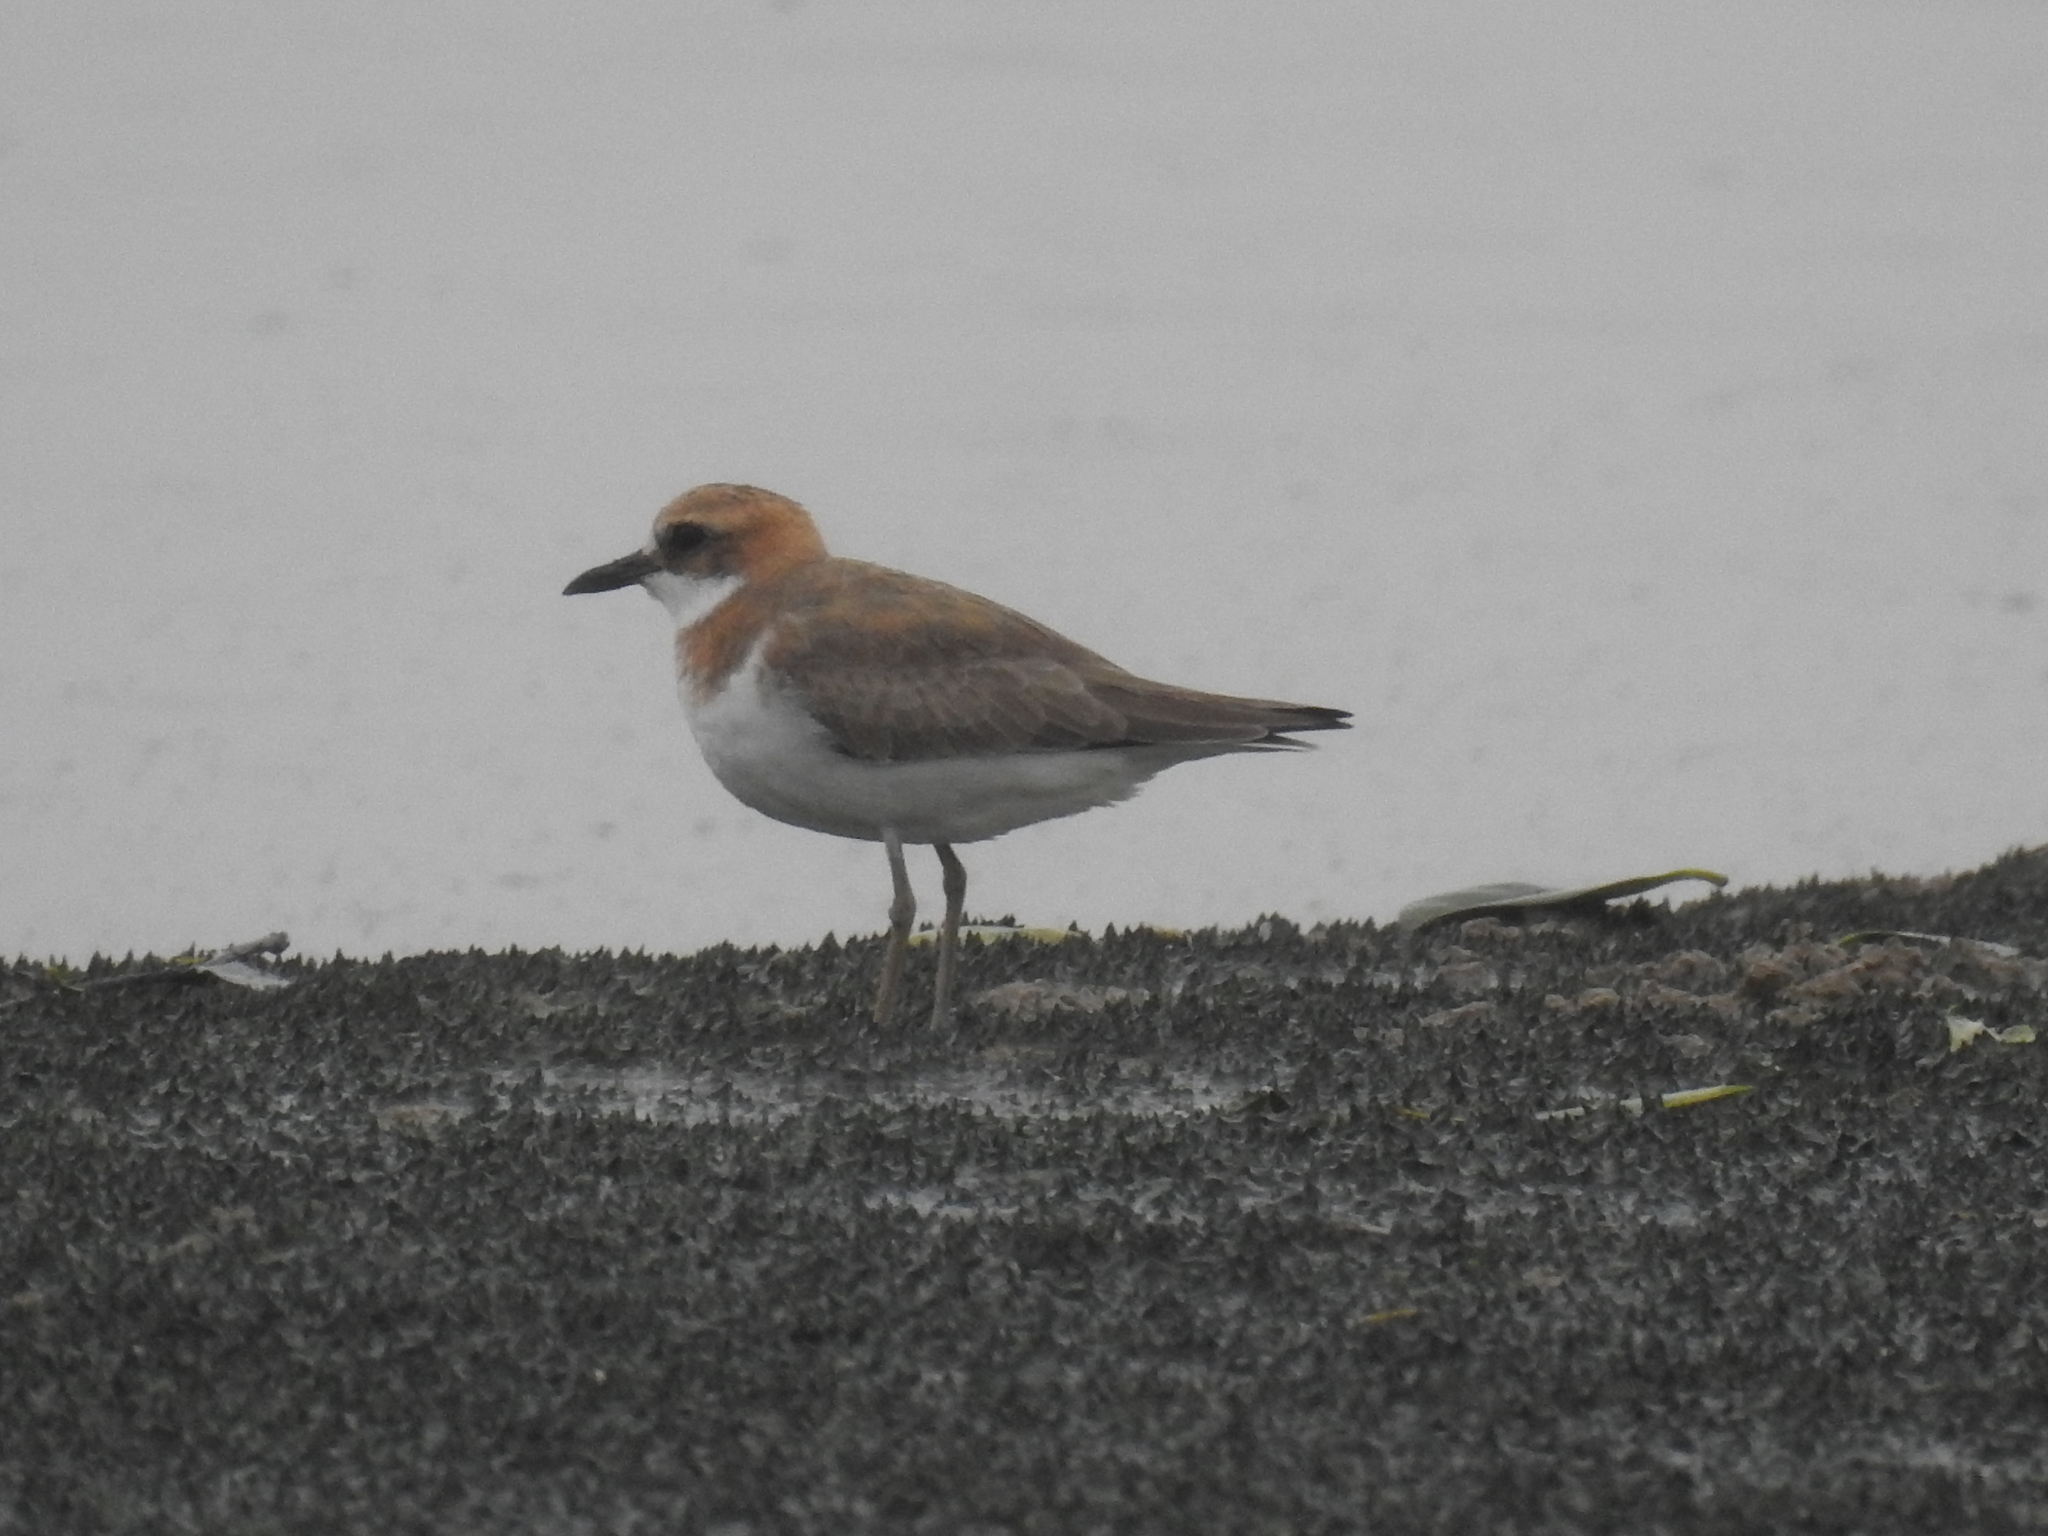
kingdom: Animalia
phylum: Chordata
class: Aves
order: Charadriiformes
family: Charadriidae
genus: Charadrius
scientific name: Charadrius leschenaultii
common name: Greater sand plover
